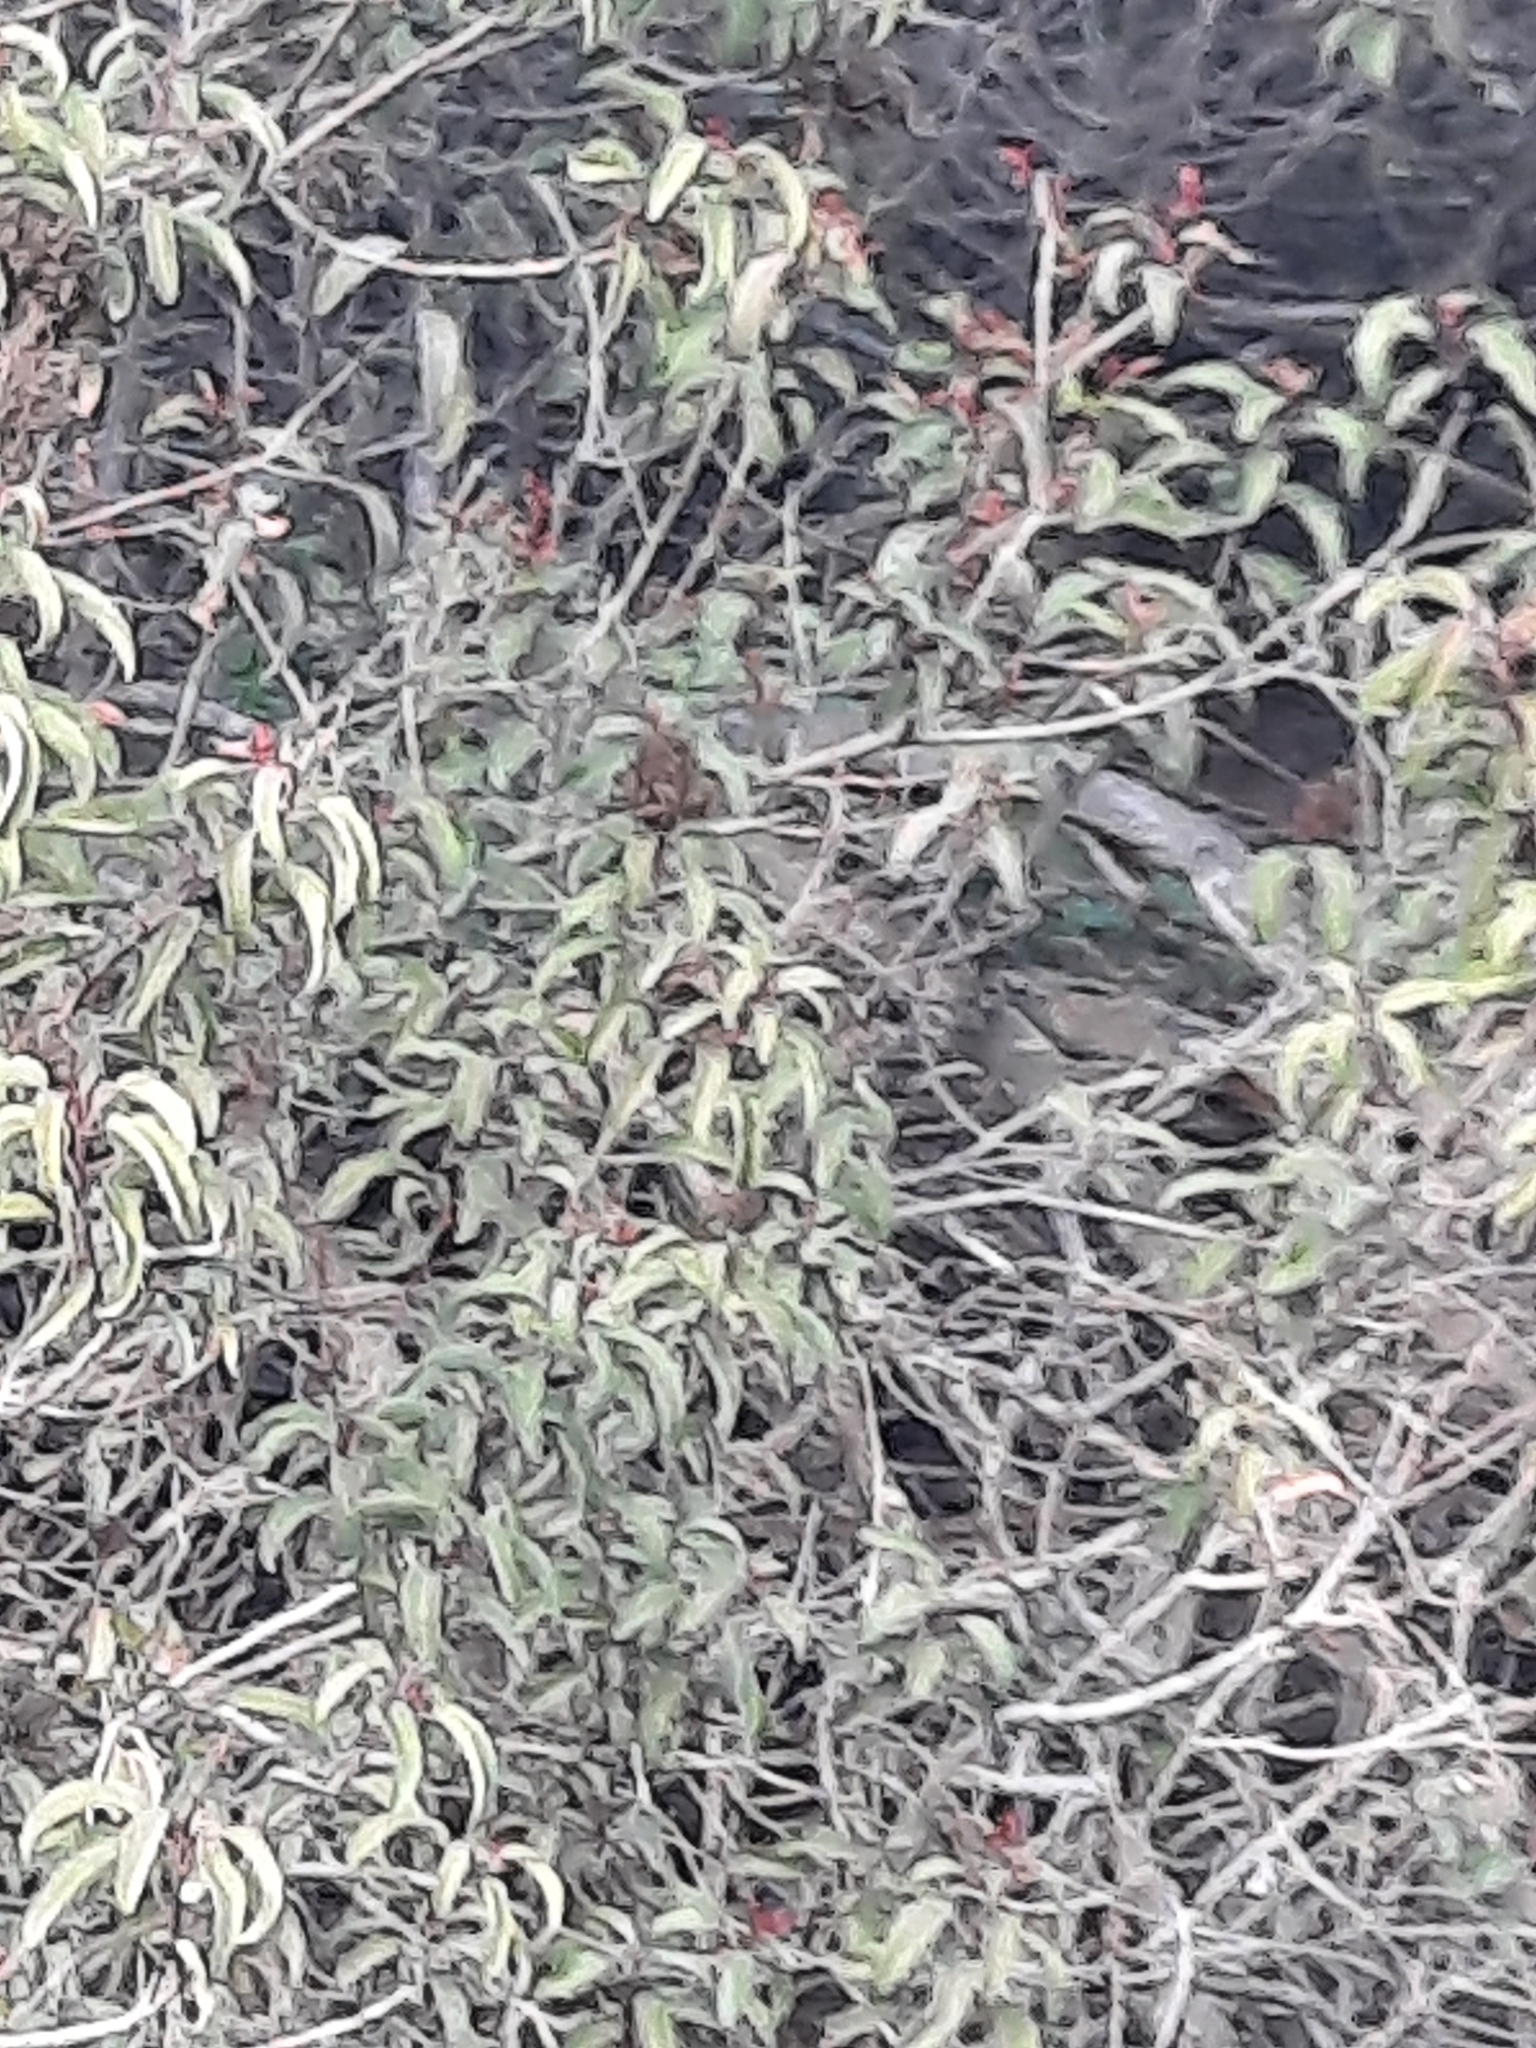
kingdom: Plantae
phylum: Tracheophyta
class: Magnoliopsida
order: Sapindales
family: Anacardiaceae
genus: Malosma
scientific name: Malosma laurina
